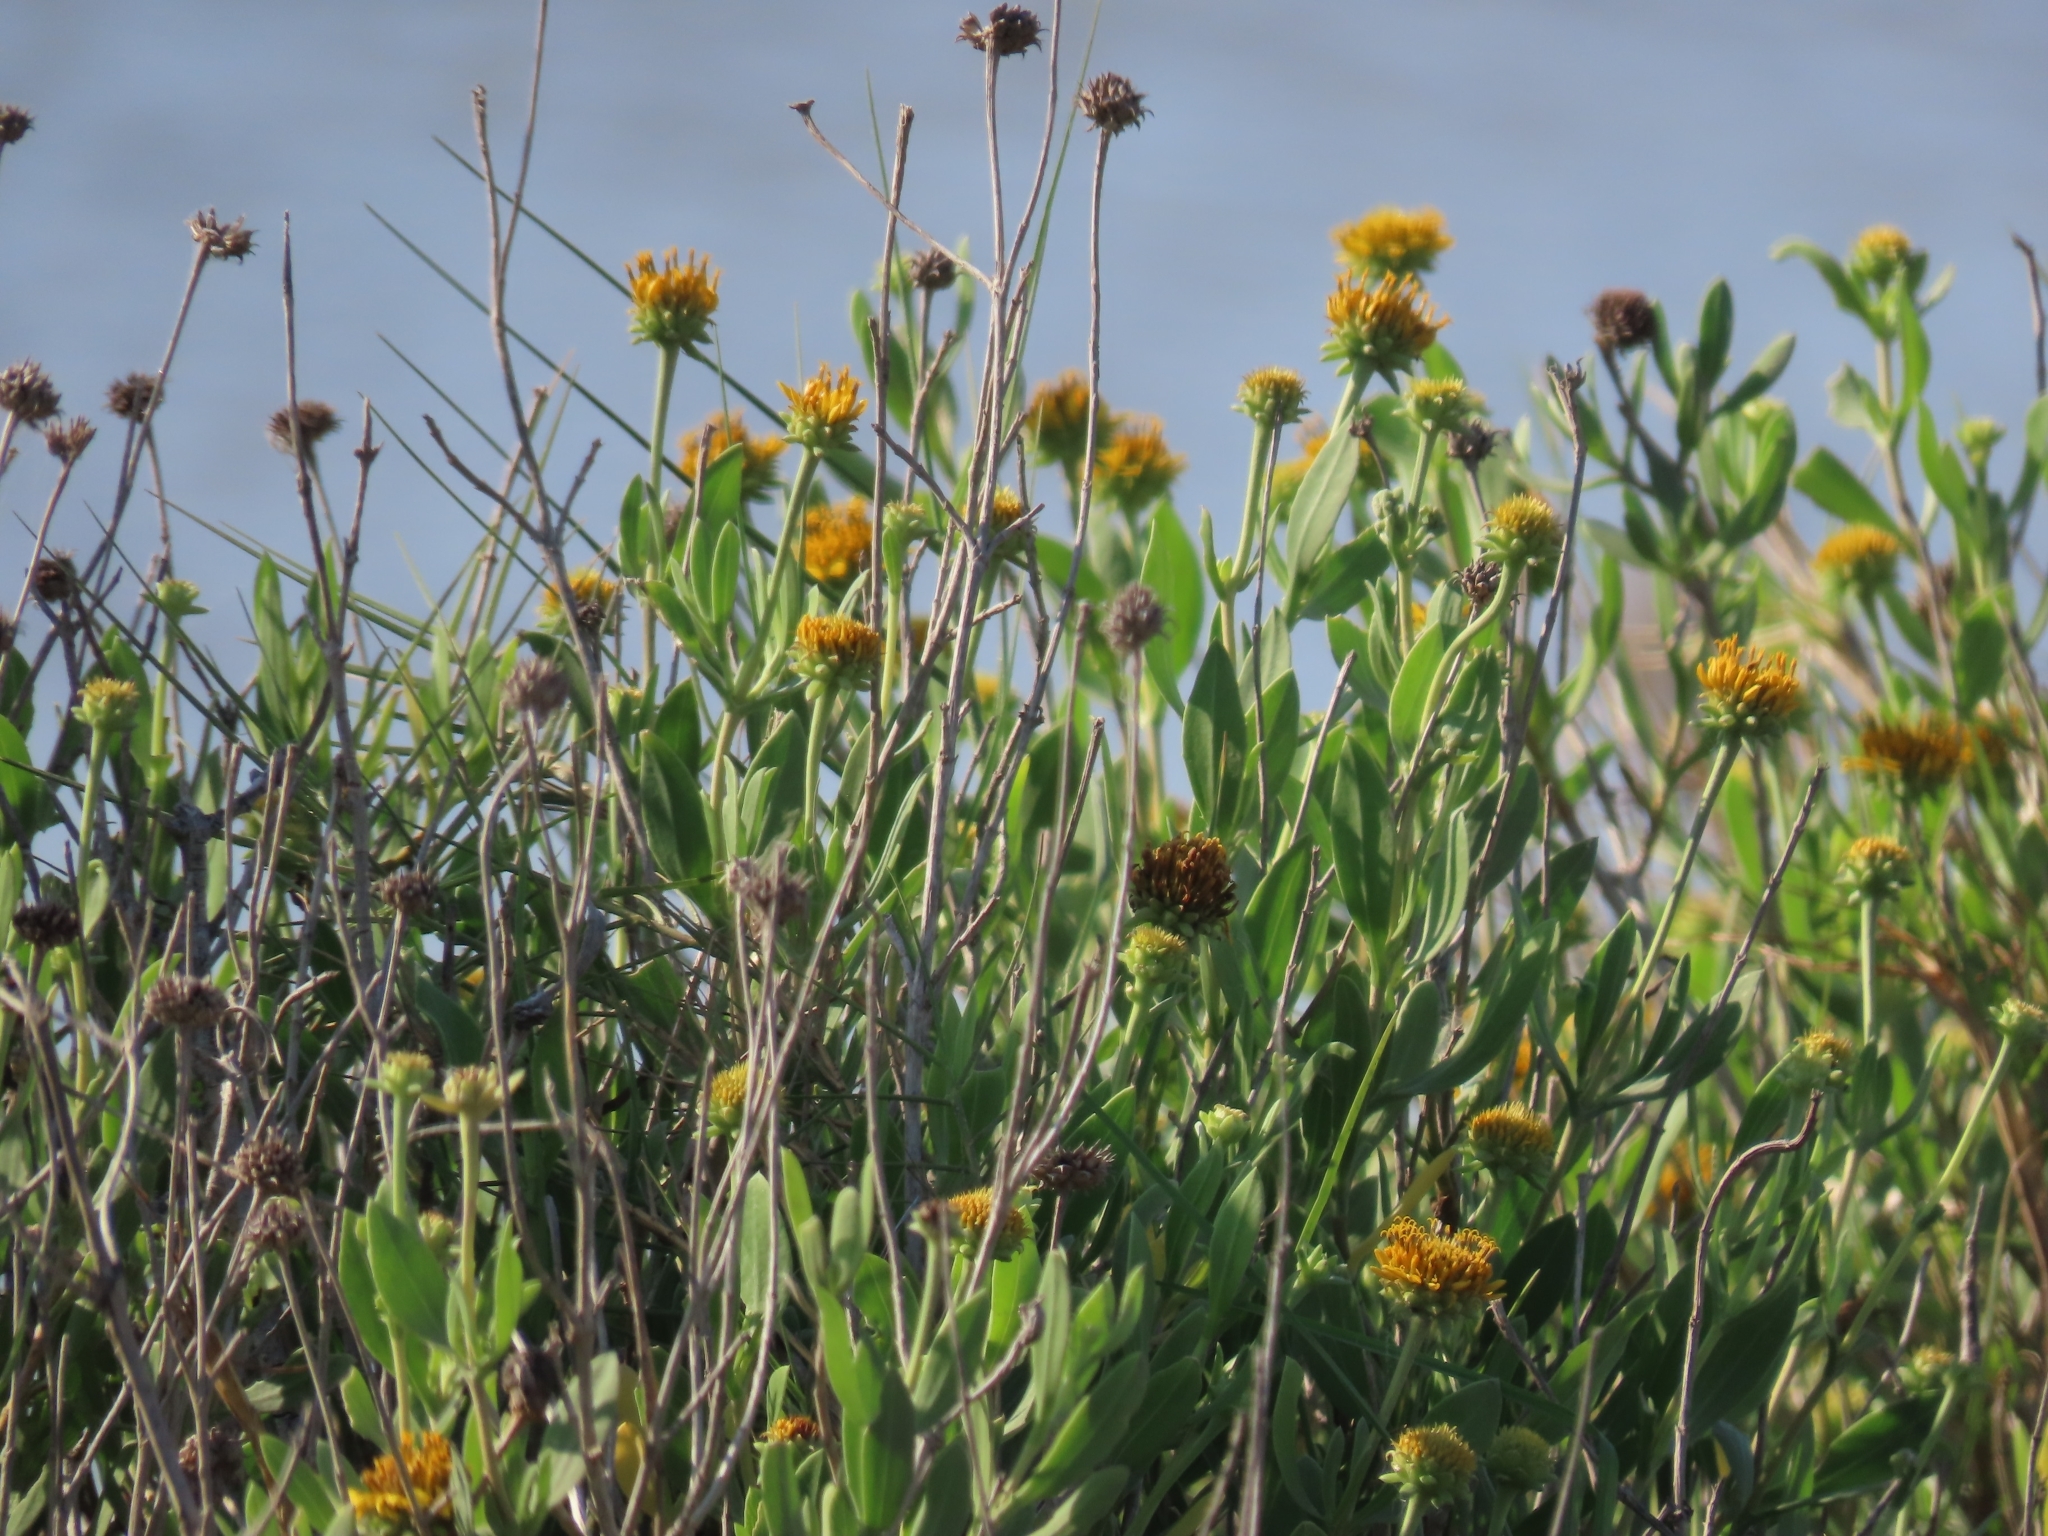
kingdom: Plantae
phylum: Tracheophyta
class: Magnoliopsida
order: Asterales
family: Asteraceae
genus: Borrichia
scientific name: Borrichia frutescens
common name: Sea oxeye
